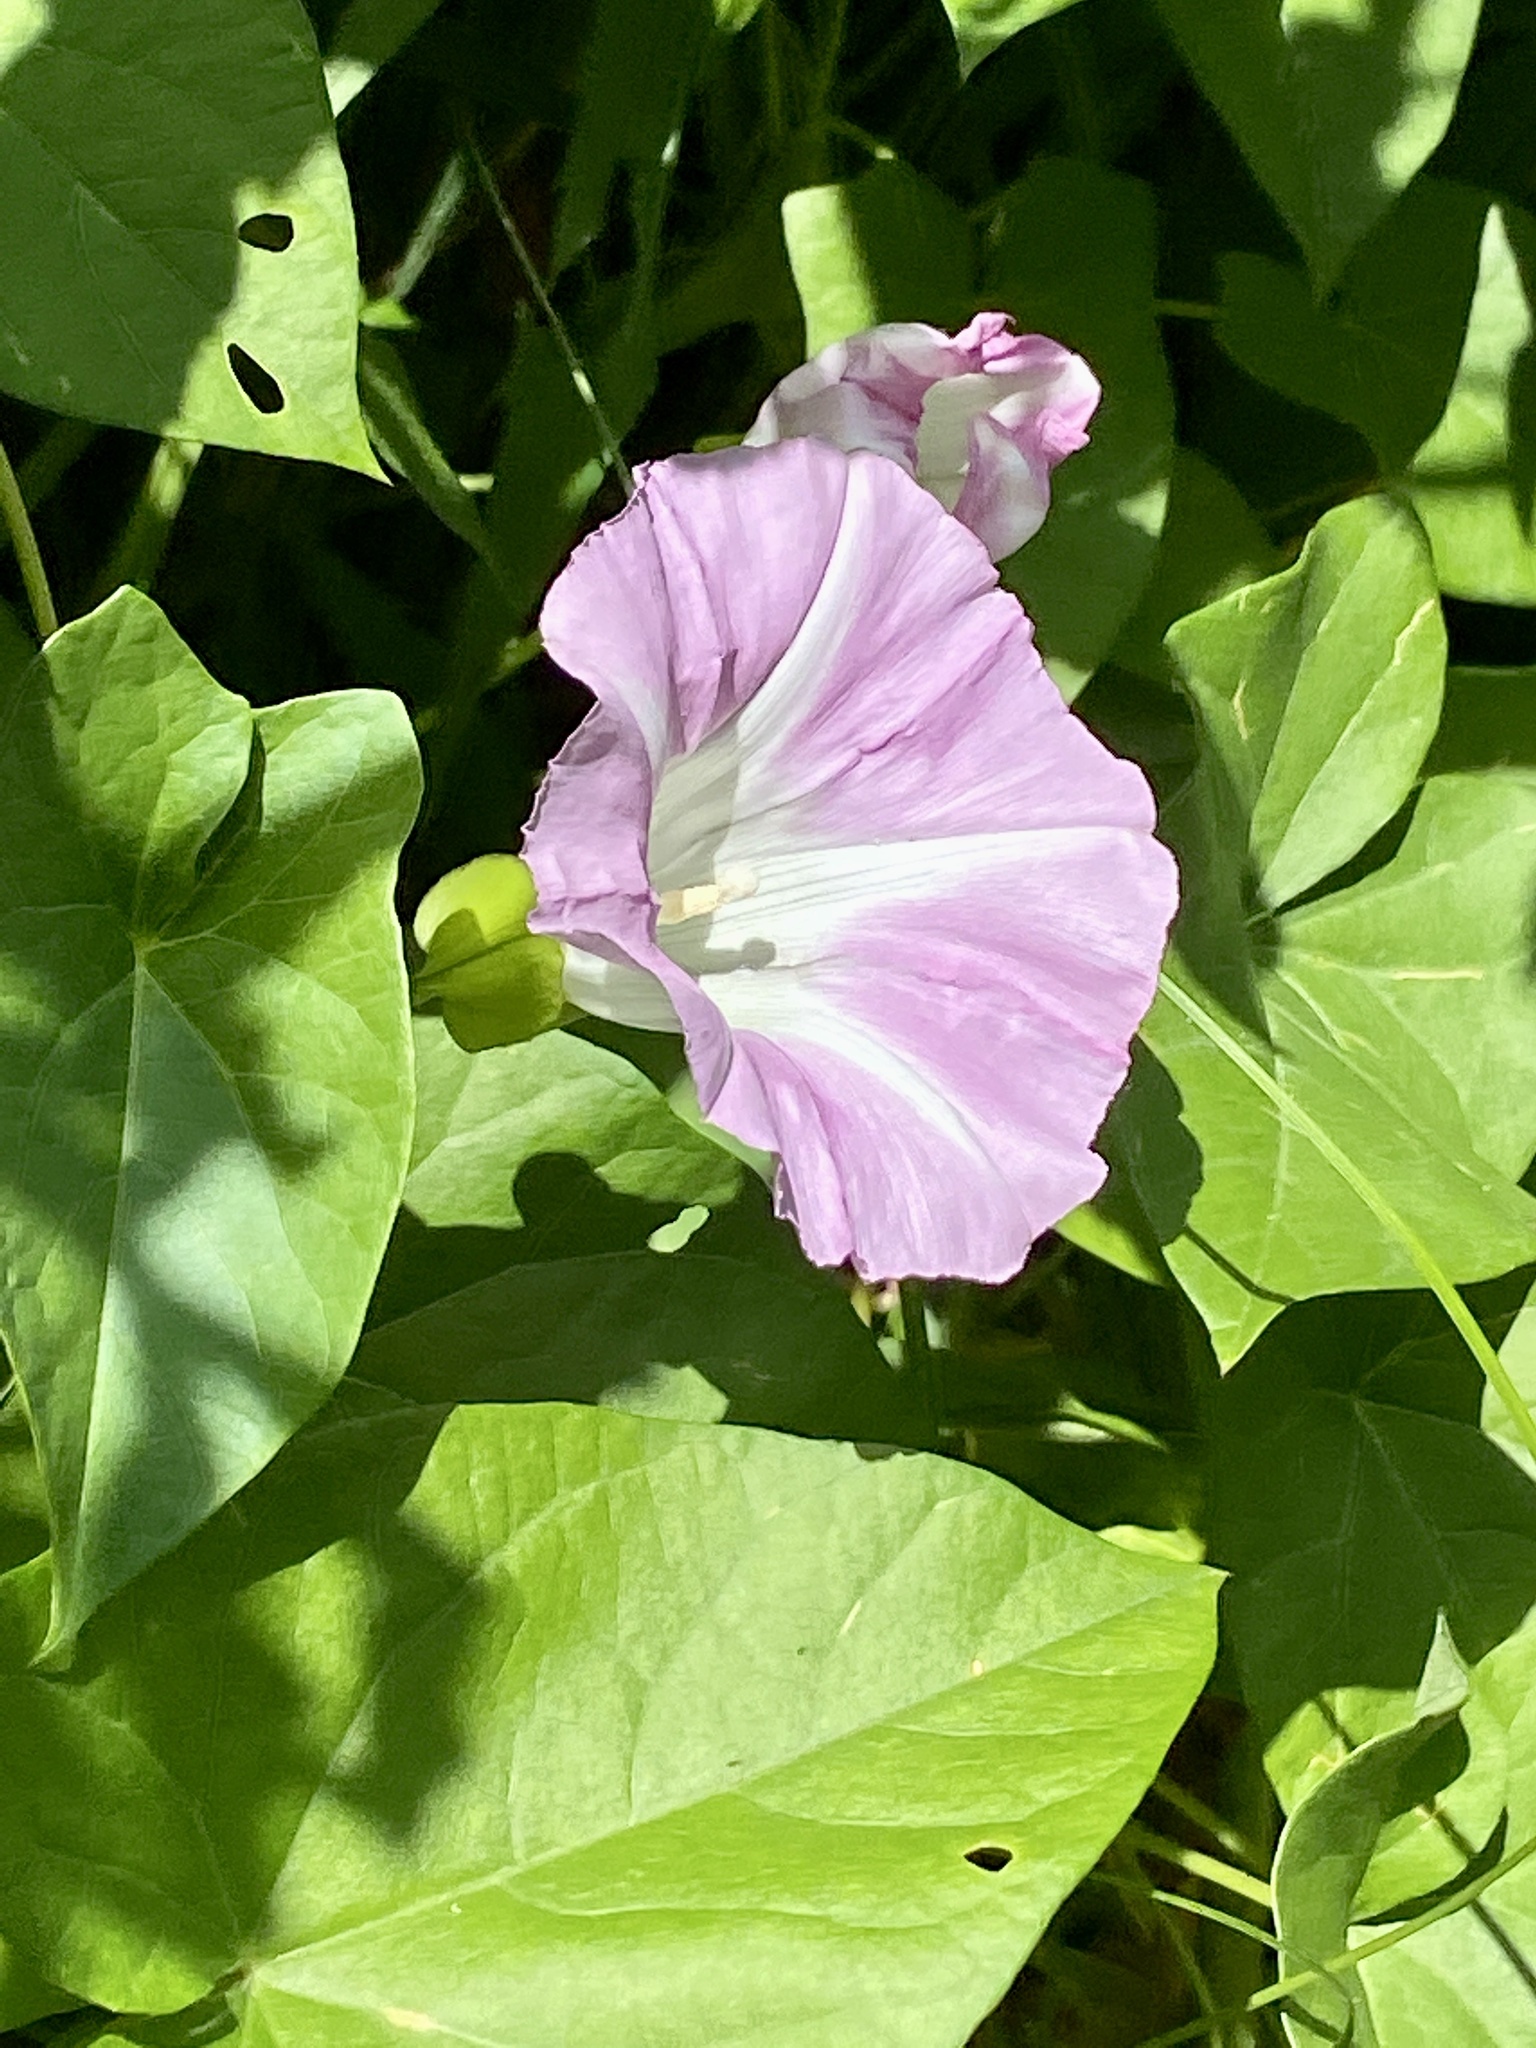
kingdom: Plantae
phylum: Tracheophyta
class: Magnoliopsida
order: Solanales
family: Convolvulaceae
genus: Calystegia
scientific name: Calystegia sepium
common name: Hedge bindweed
